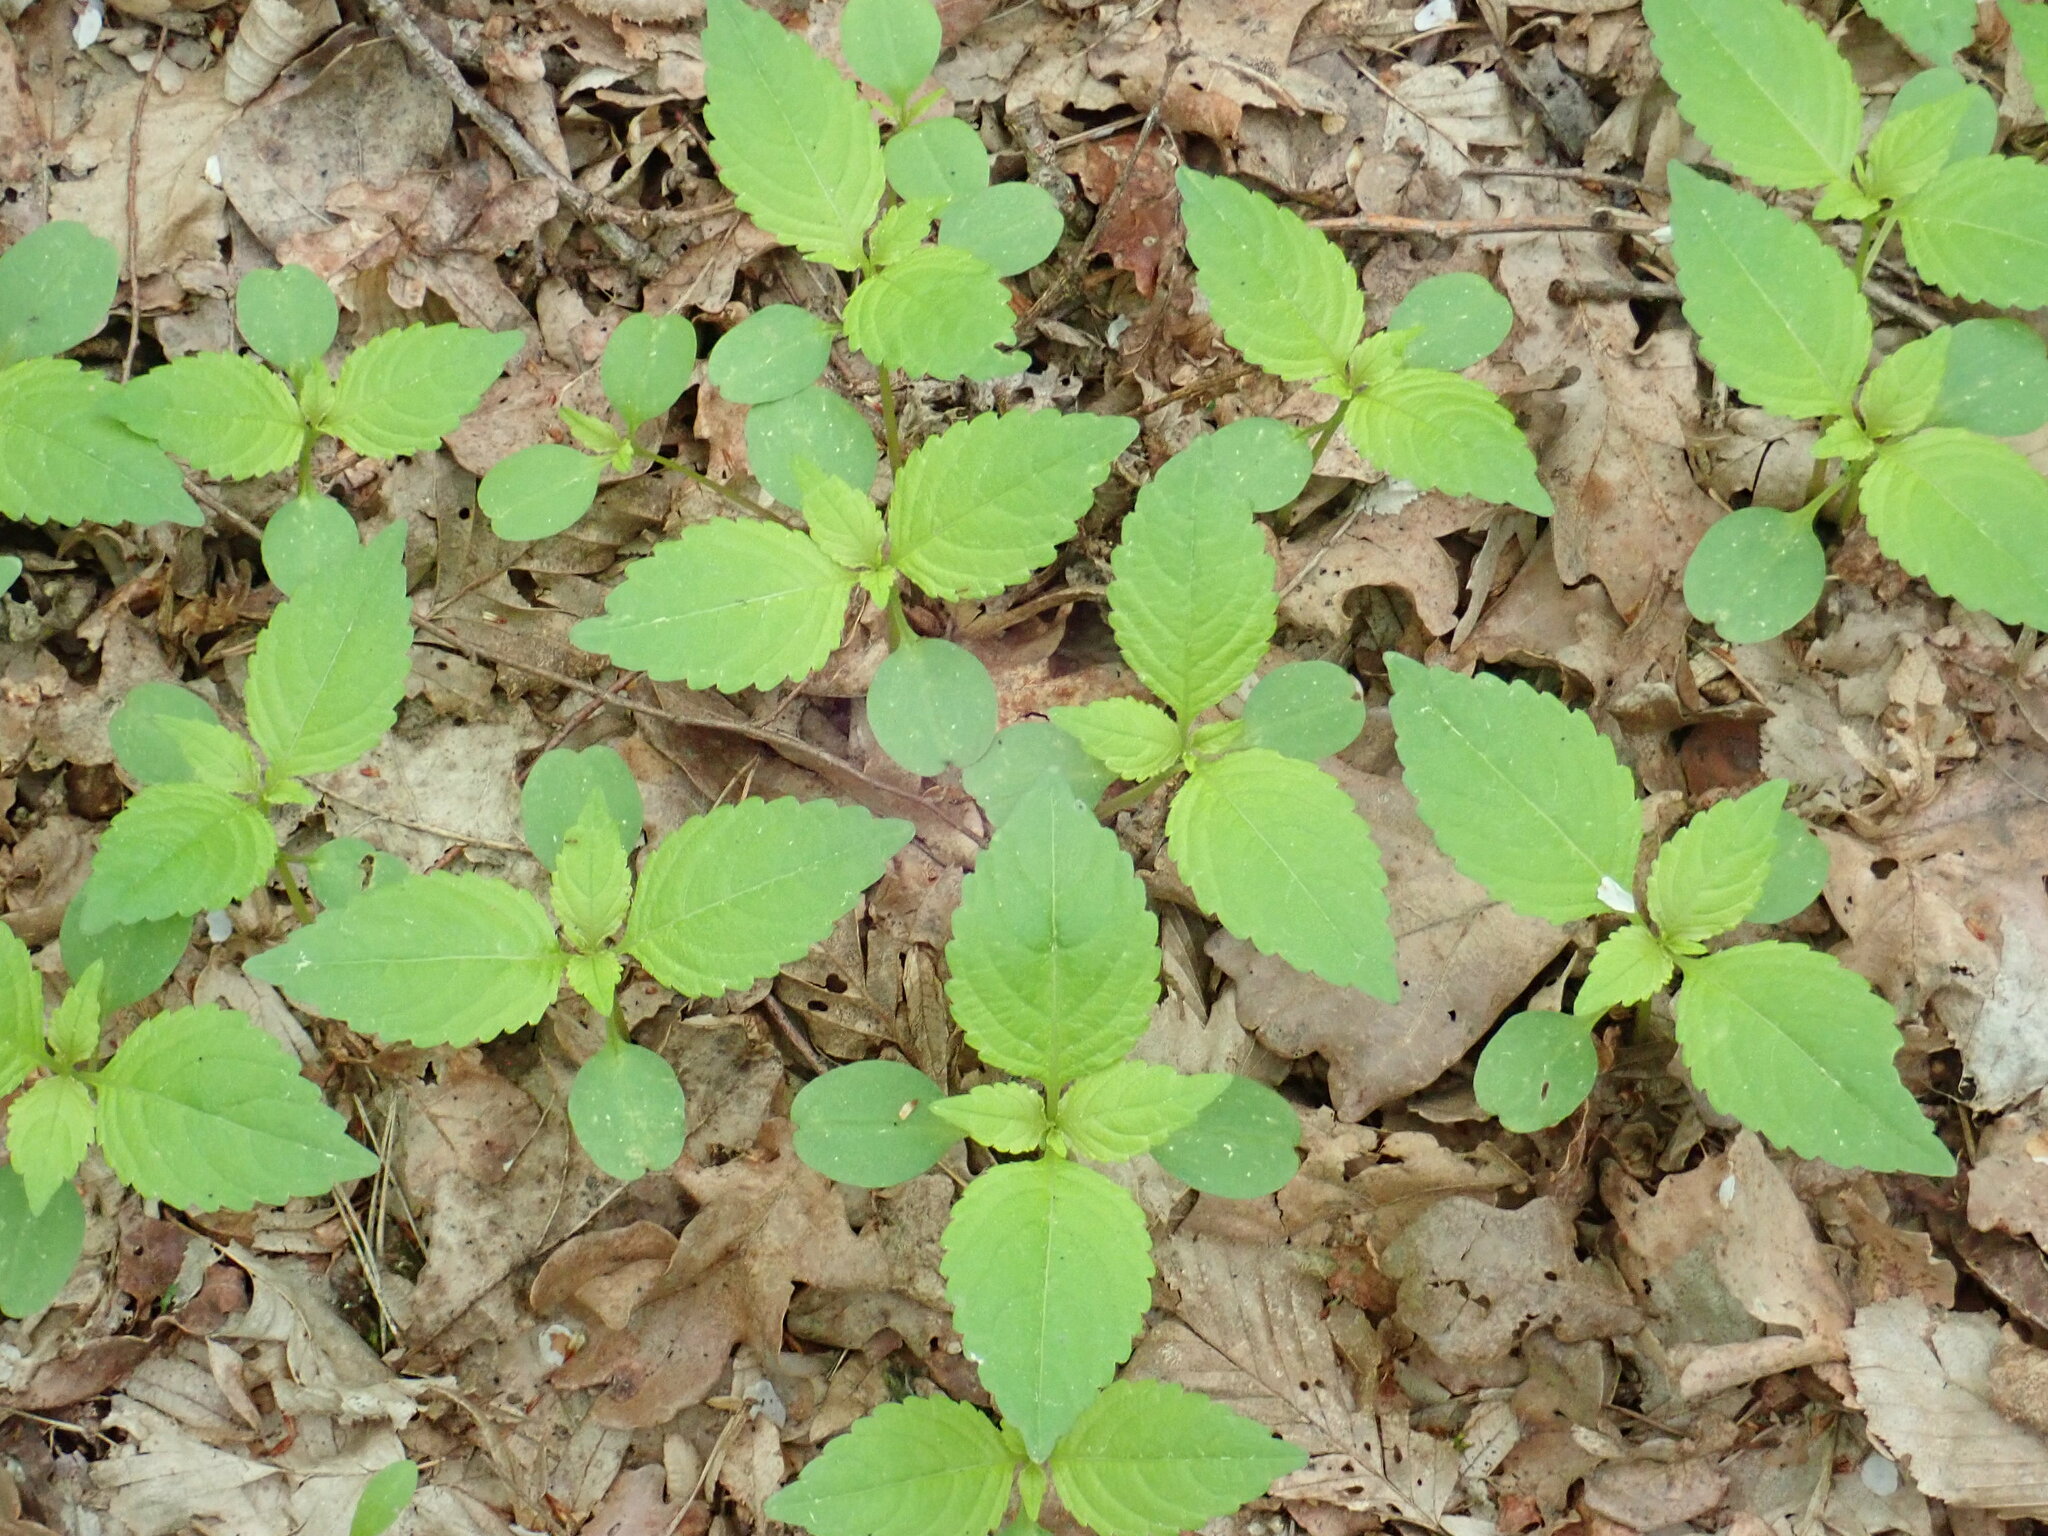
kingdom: Plantae
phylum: Tracheophyta
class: Magnoliopsida
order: Ericales
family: Balsaminaceae
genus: Impatiens
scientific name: Impatiens parviflora
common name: Small balsam
